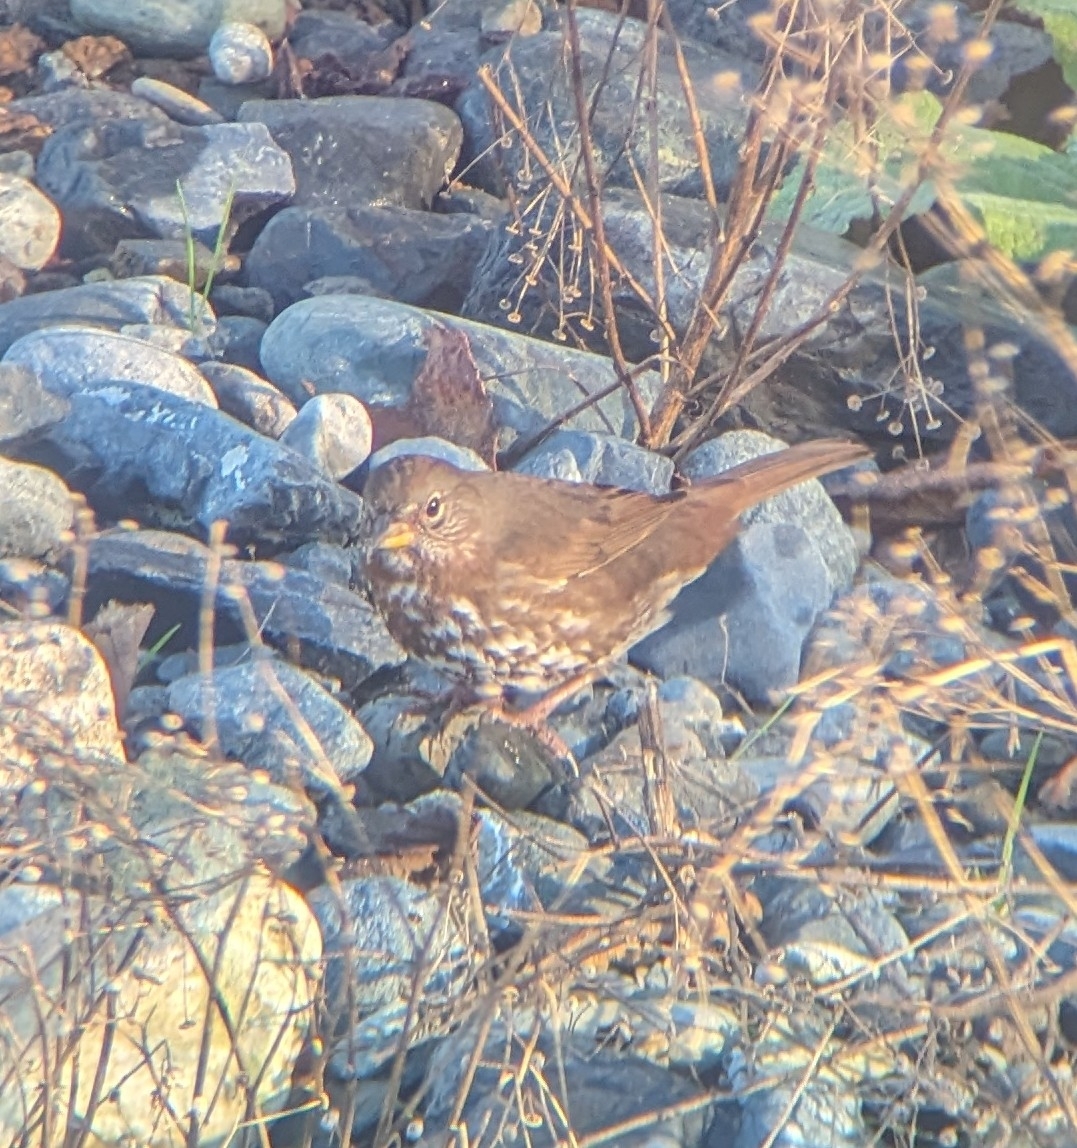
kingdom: Animalia
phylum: Chordata
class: Aves
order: Passeriformes
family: Passerellidae
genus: Passerella
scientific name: Passerella iliaca
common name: Fox sparrow
